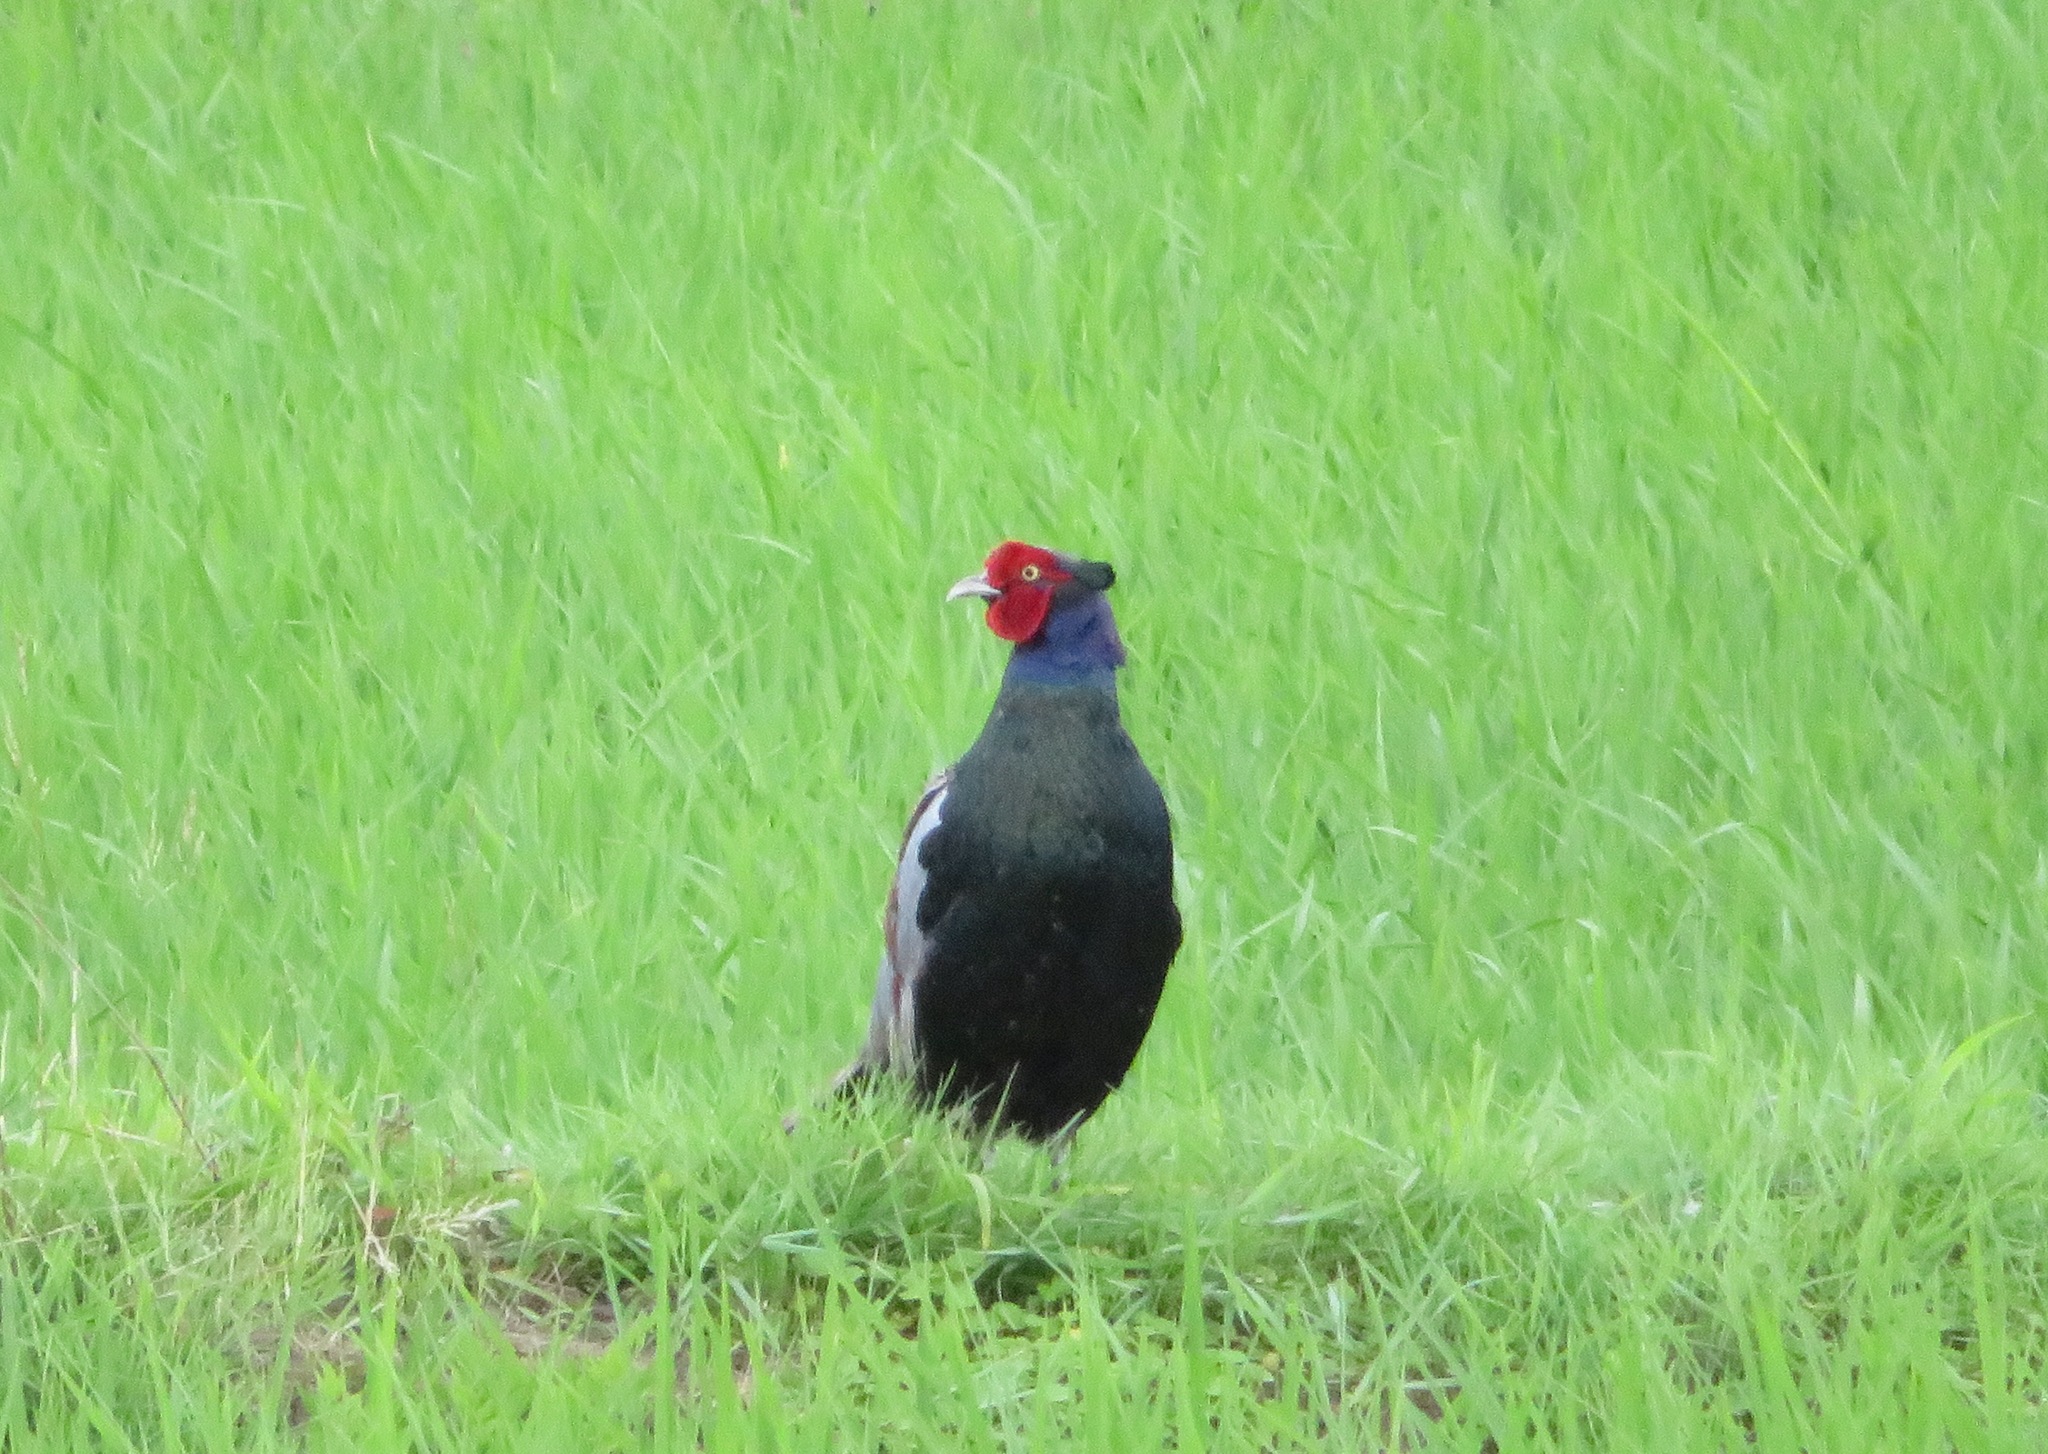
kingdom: Animalia
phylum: Chordata
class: Aves
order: Galliformes
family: Phasianidae
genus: Phasianus
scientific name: Phasianus versicolor
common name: Green pheasant
